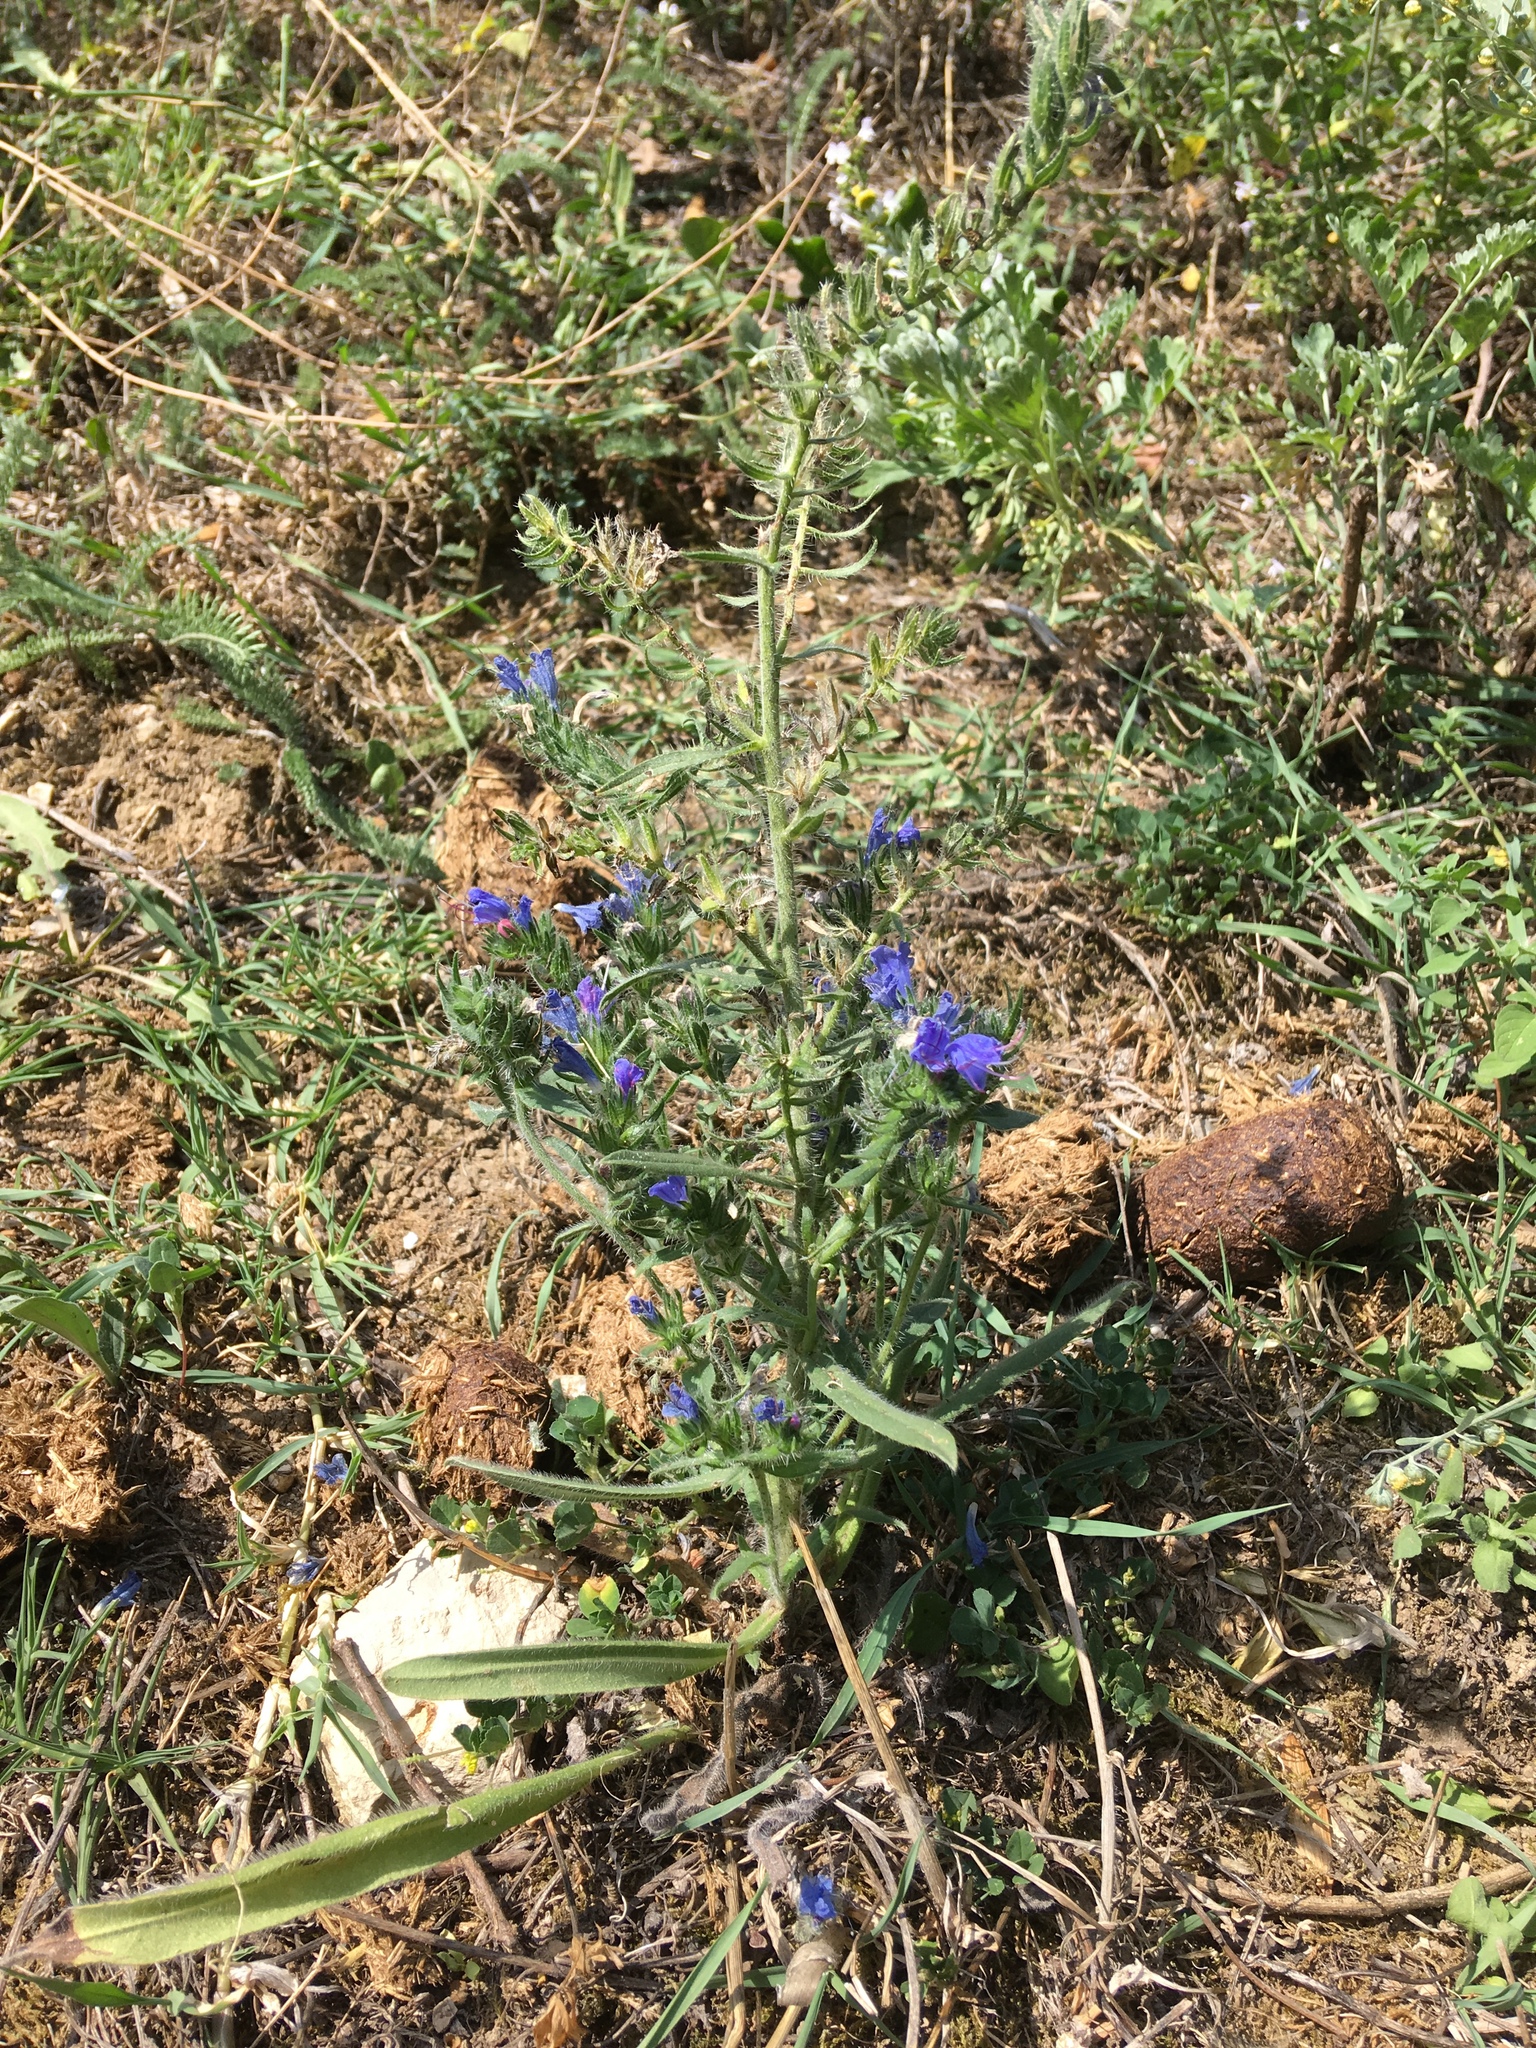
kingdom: Plantae
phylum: Tracheophyta
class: Magnoliopsida
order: Boraginales
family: Boraginaceae
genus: Echium
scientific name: Echium vulgare
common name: Common viper's bugloss
